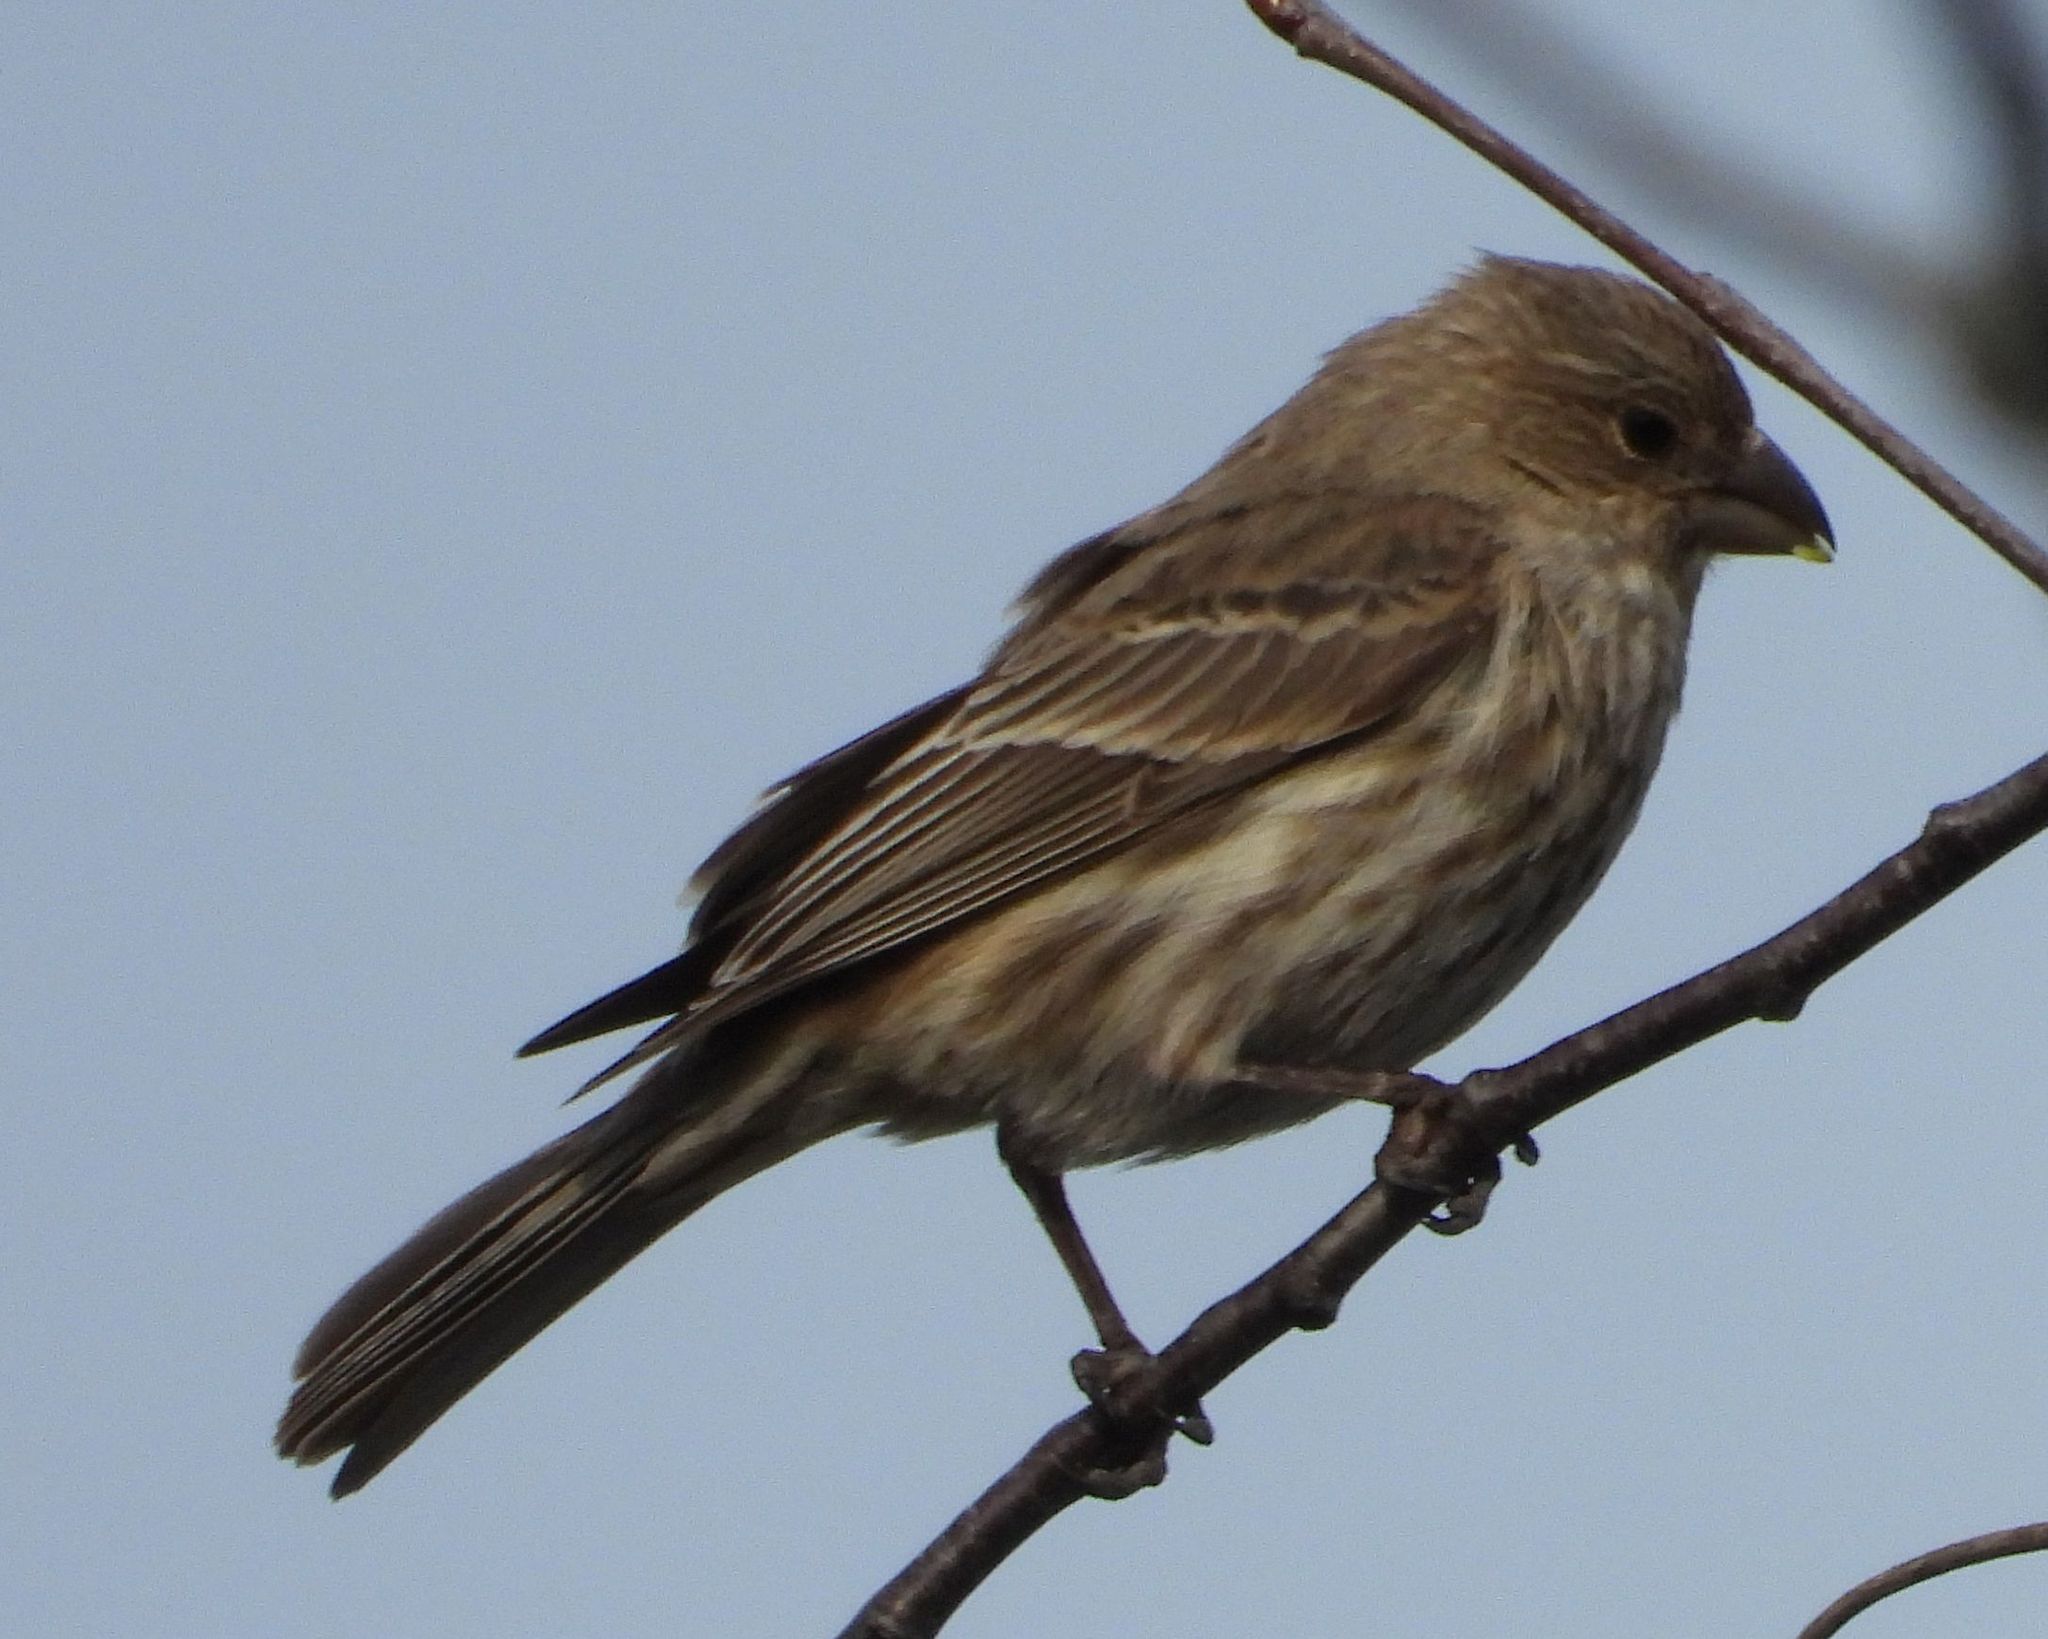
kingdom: Animalia
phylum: Chordata
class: Aves
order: Passeriformes
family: Fringillidae
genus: Haemorhous
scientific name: Haemorhous mexicanus
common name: House finch
